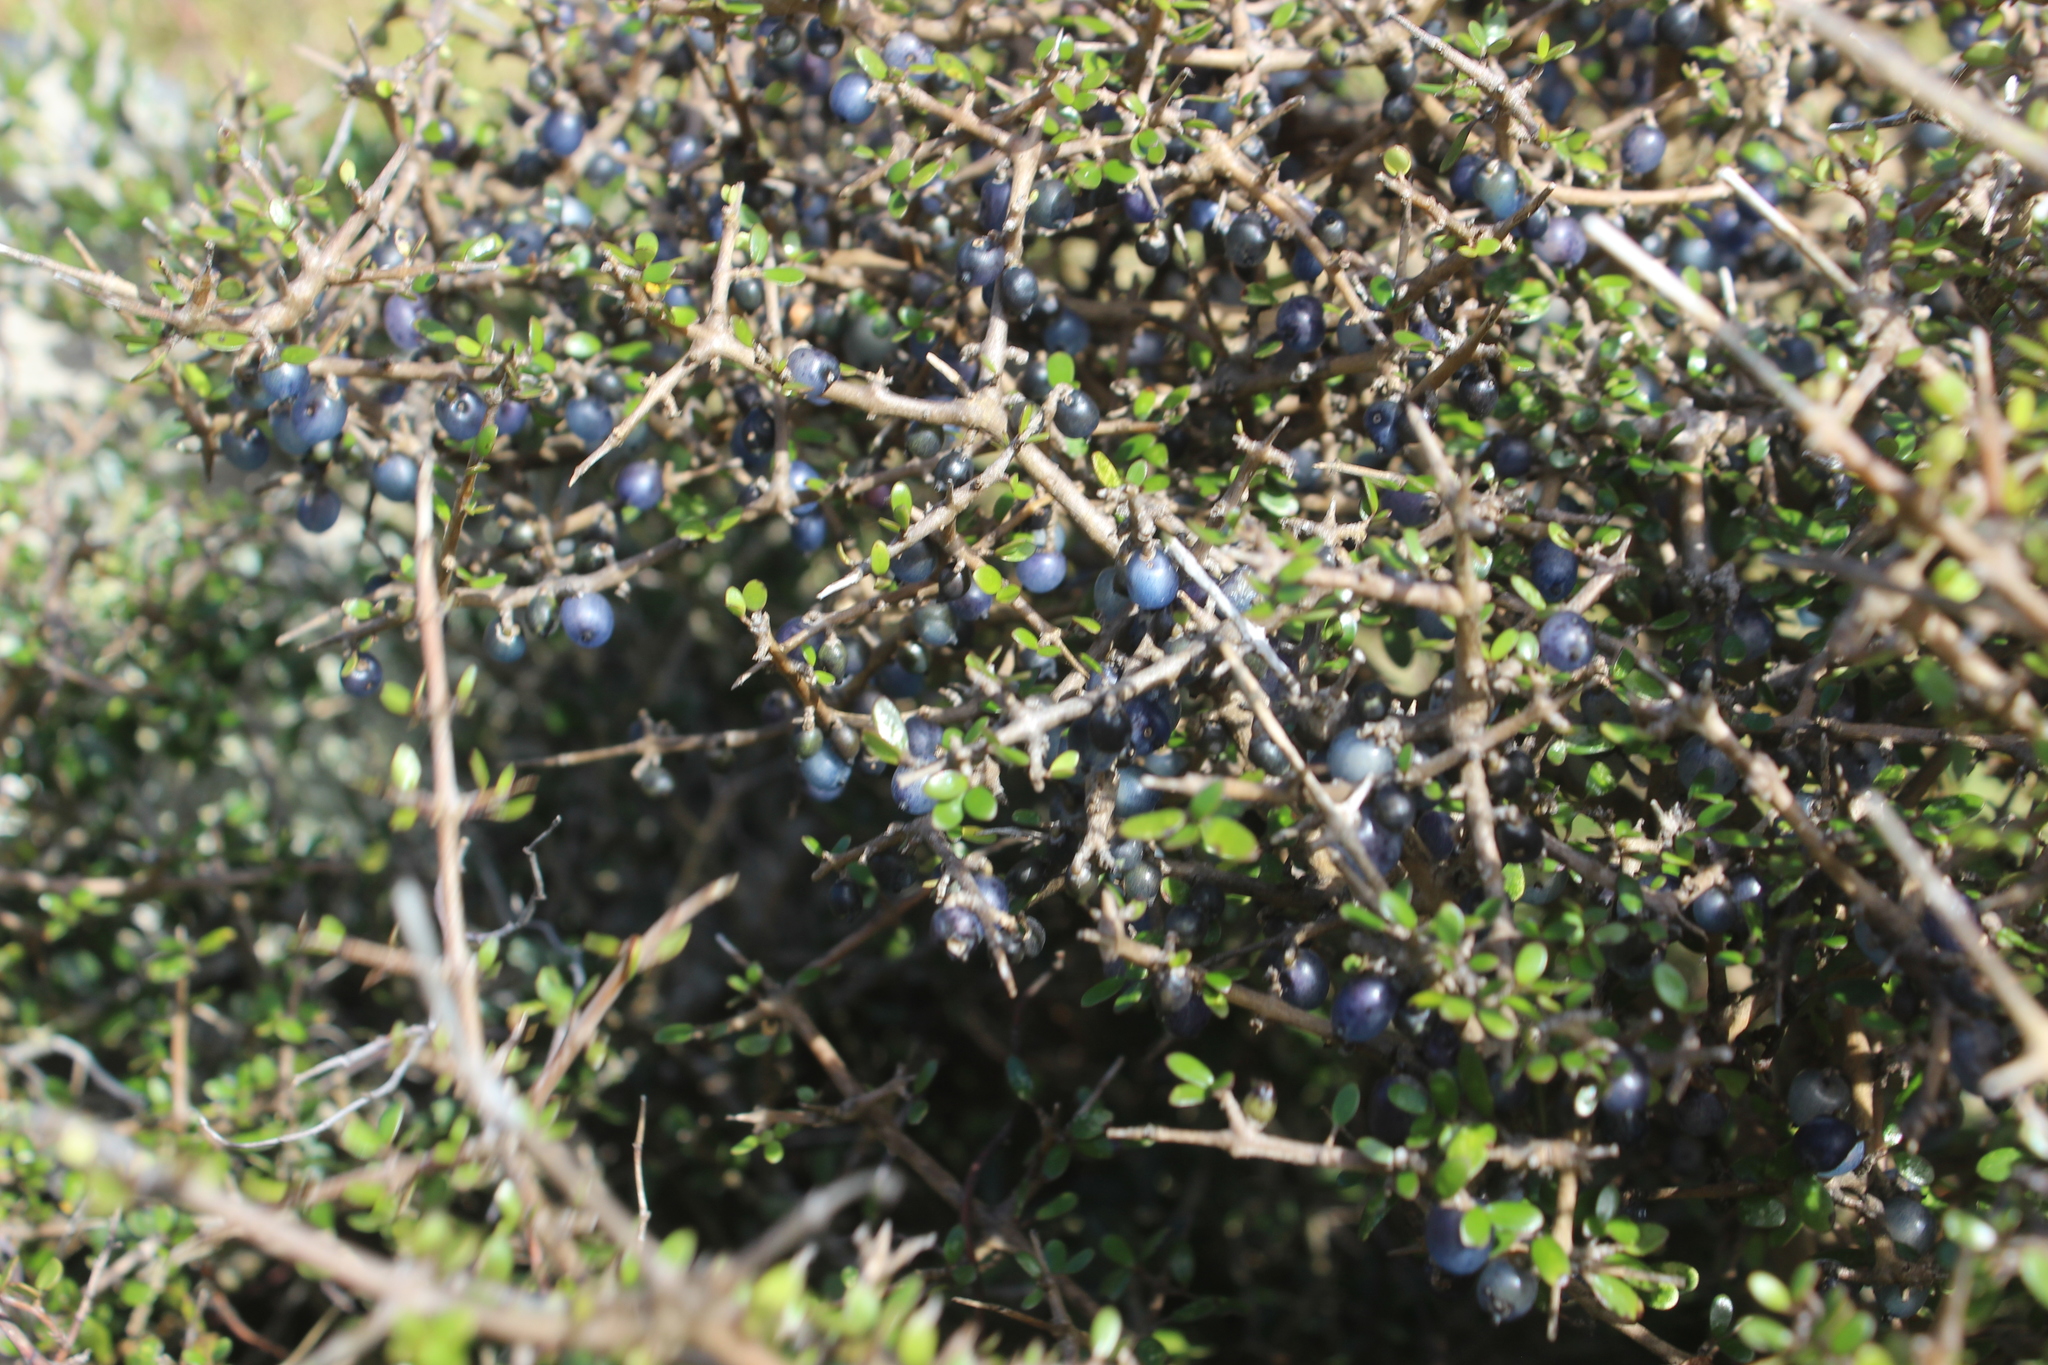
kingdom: Plantae
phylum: Tracheophyta
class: Magnoliopsida
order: Gentianales
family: Rubiaceae
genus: Coprosma
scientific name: Coprosma propinqua
